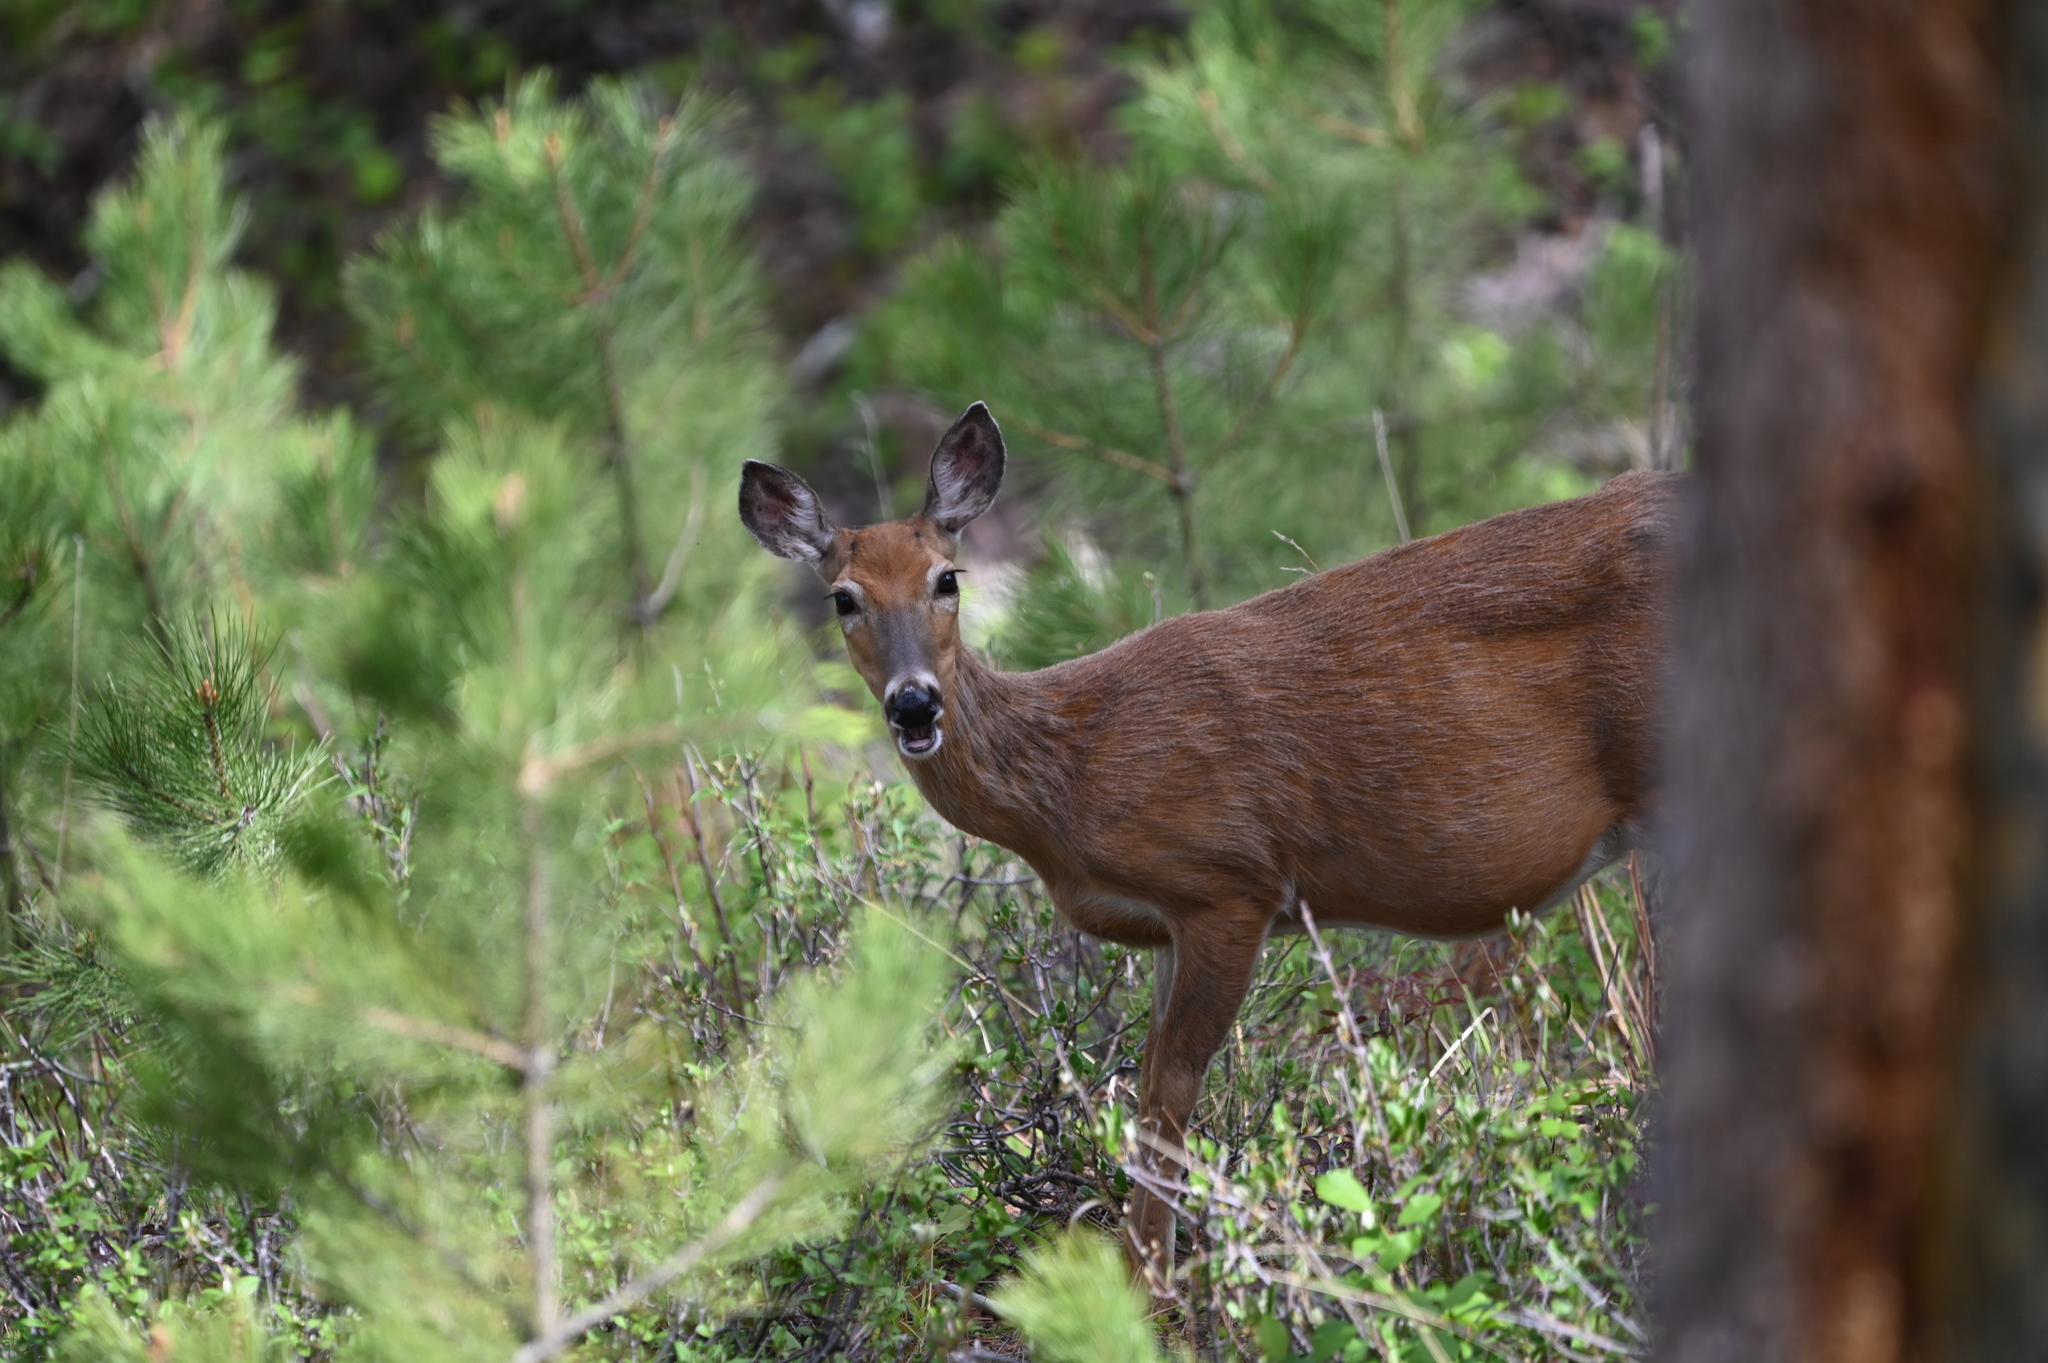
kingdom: Animalia
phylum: Chordata
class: Mammalia
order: Artiodactyla
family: Cervidae
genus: Odocoileus
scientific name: Odocoileus virginianus
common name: White-tailed deer
